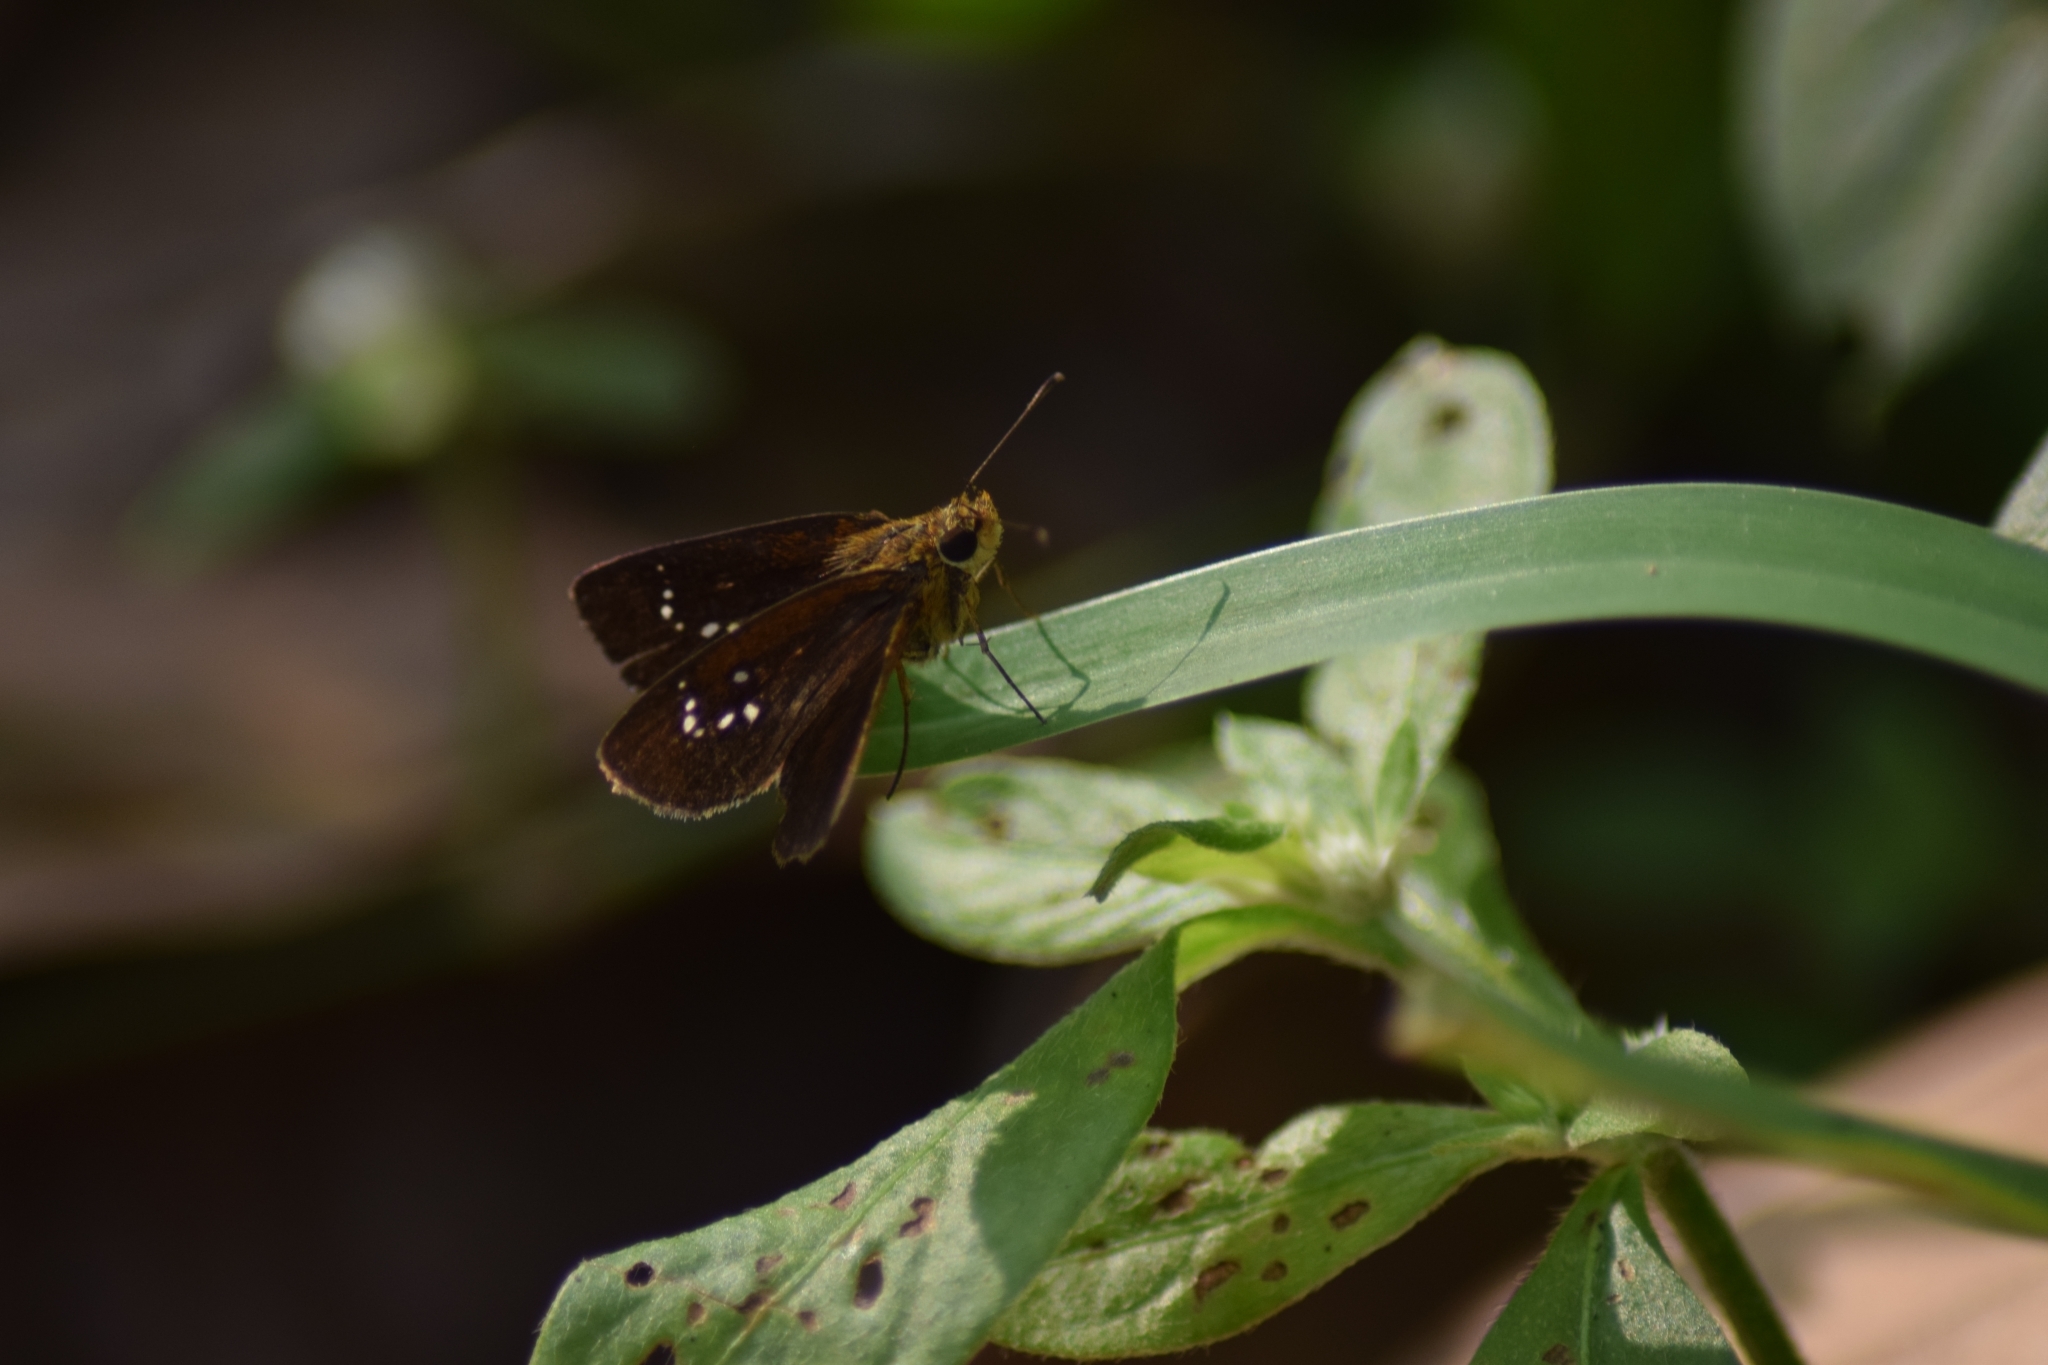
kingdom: Animalia
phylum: Arthropoda
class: Insecta
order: Lepidoptera
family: Hesperiidae
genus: Iambrix
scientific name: Iambrix salsala
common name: Chestnut bob
